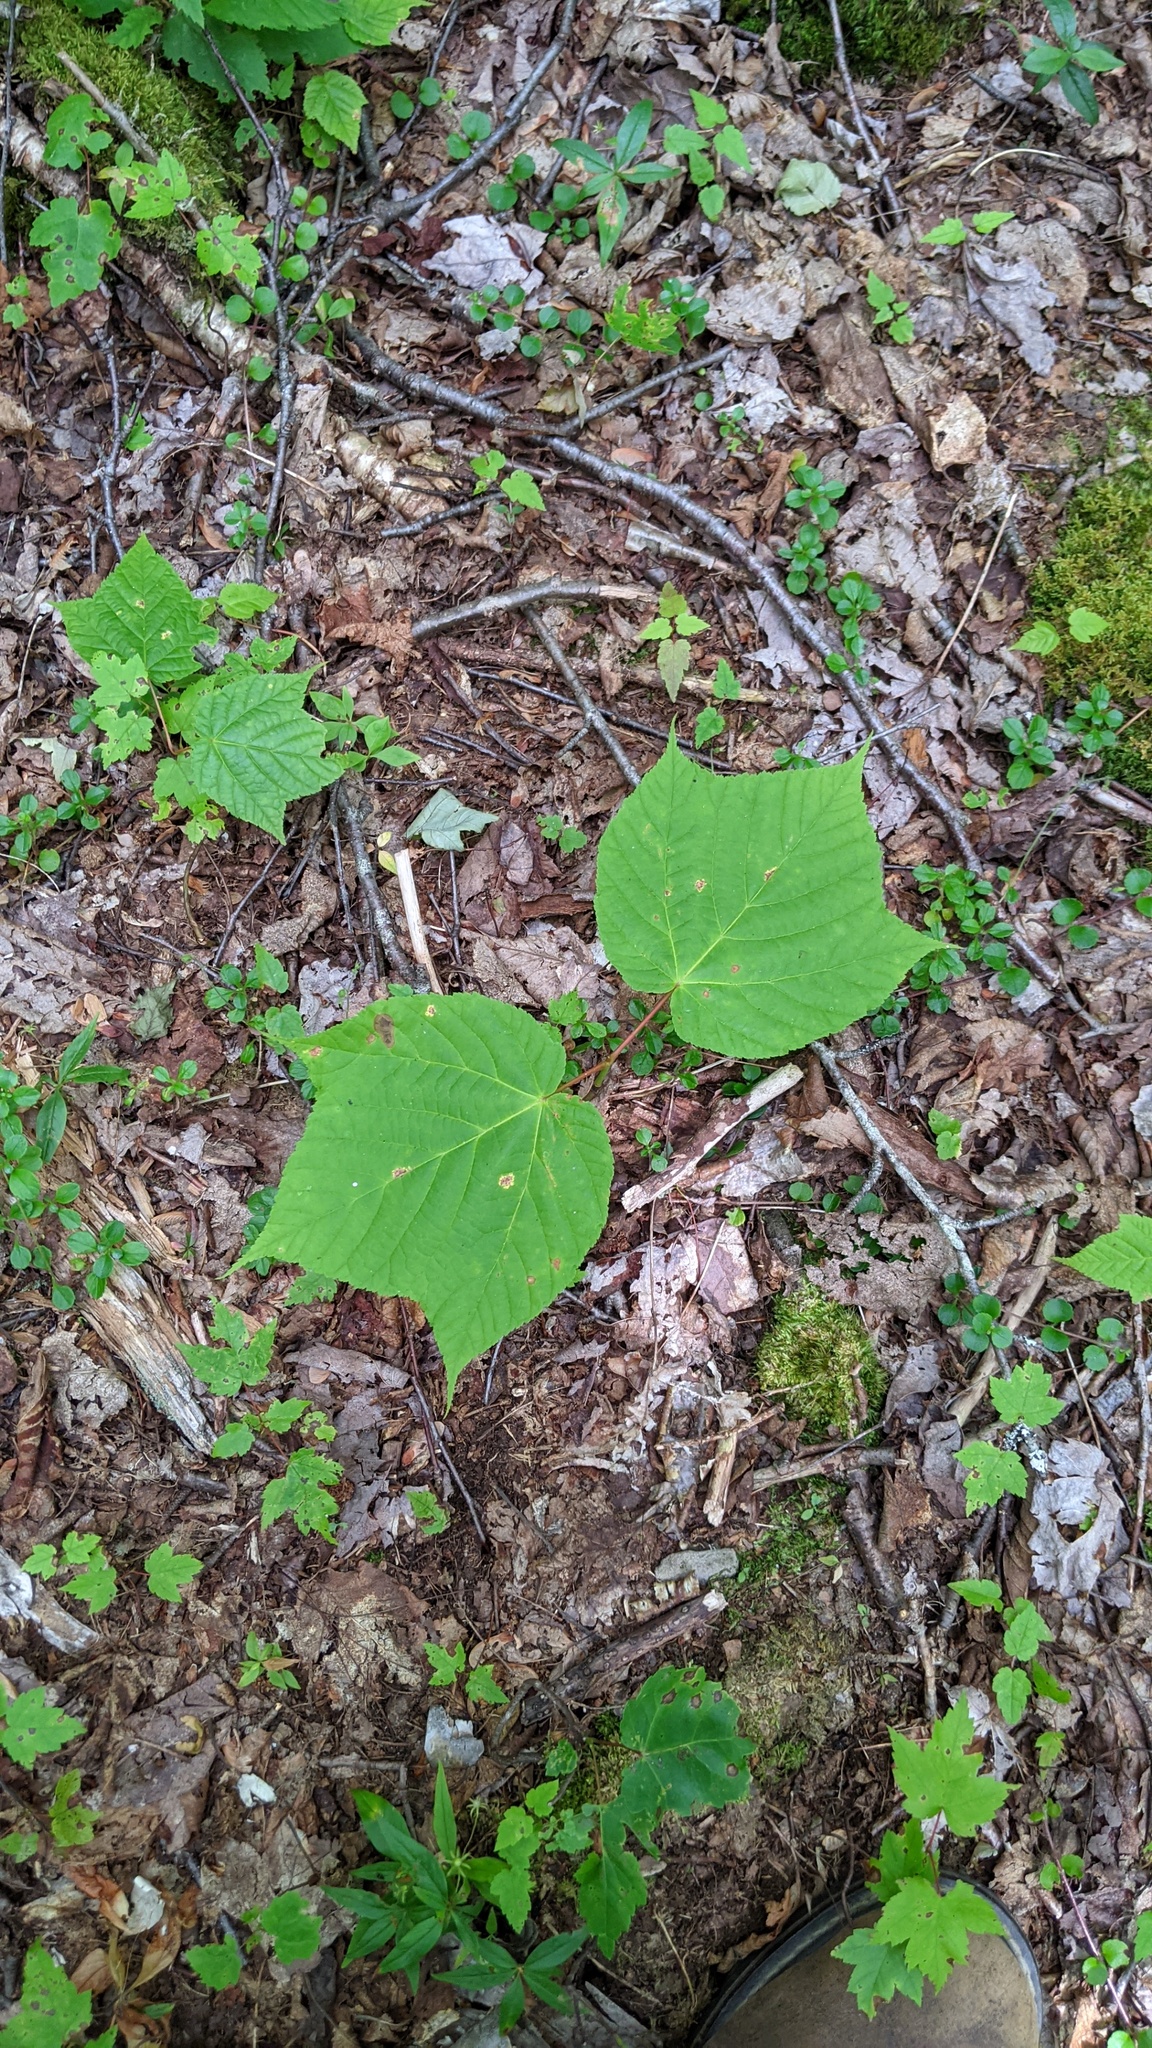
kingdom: Plantae
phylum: Tracheophyta
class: Magnoliopsida
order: Sapindales
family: Sapindaceae
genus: Acer
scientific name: Acer pensylvanicum
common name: Moosewood
